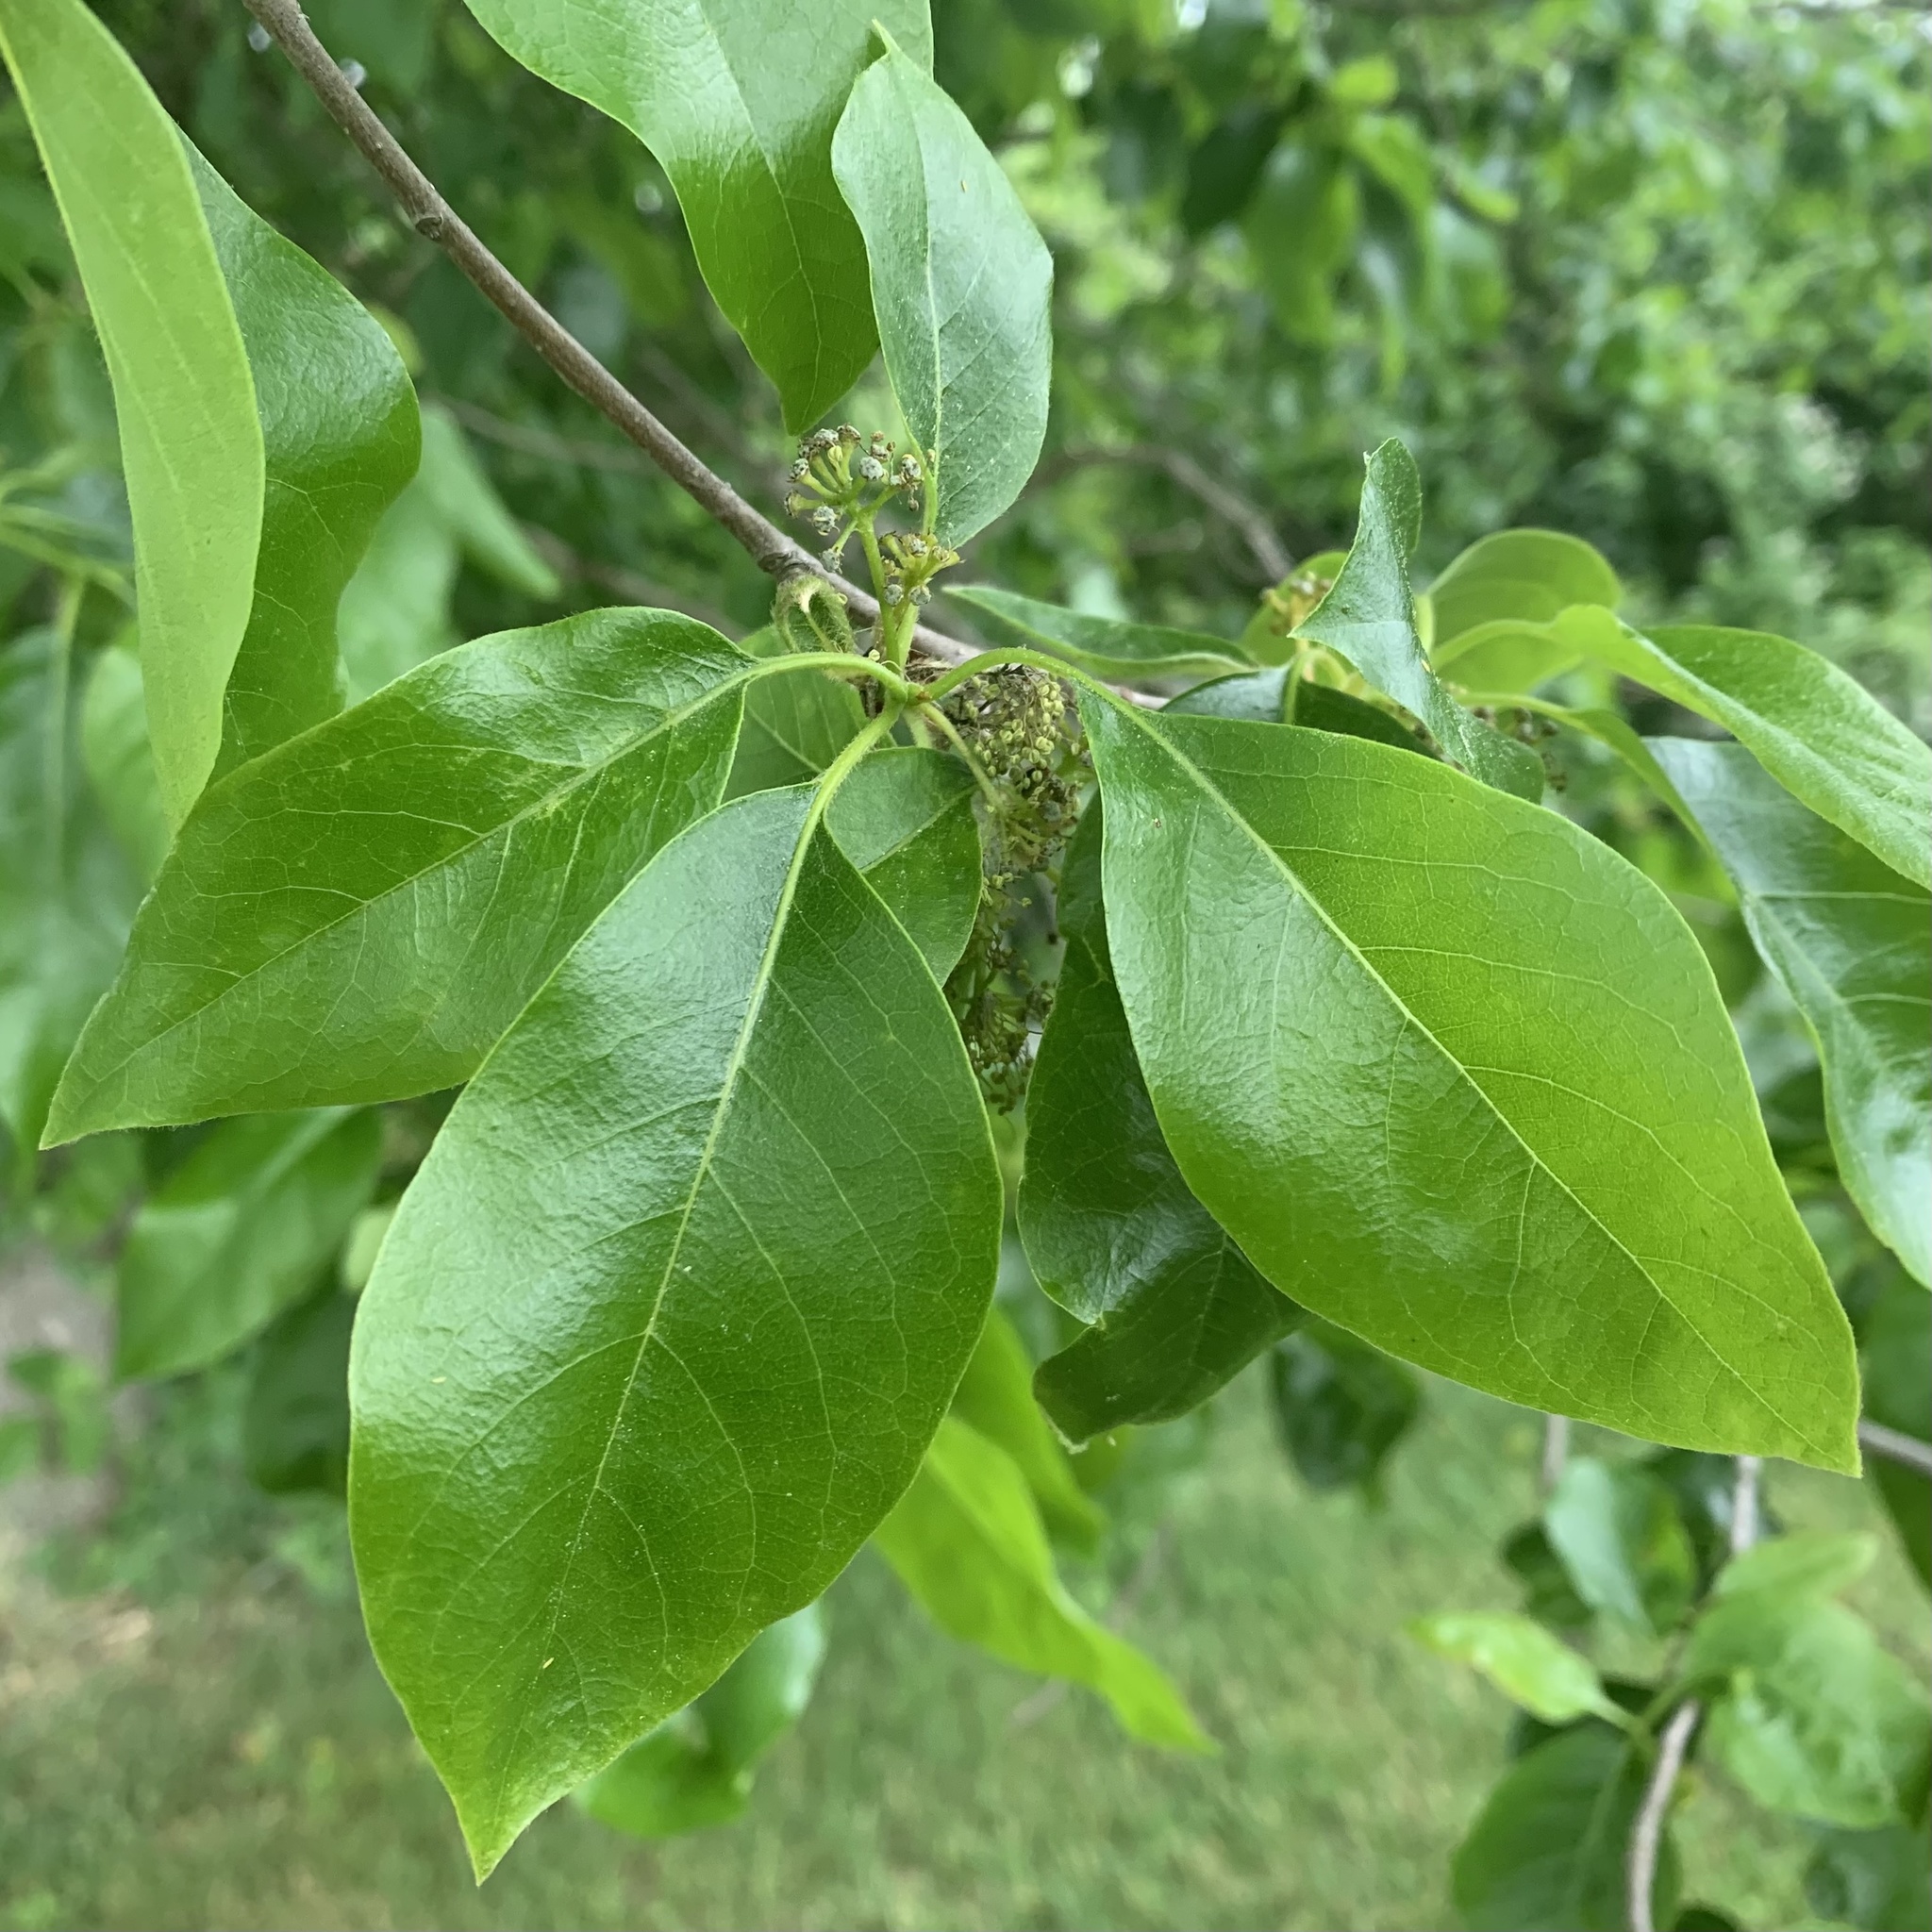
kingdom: Plantae
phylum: Tracheophyta
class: Magnoliopsida
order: Cornales
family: Nyssaceae
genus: Nyssa
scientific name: Nyssa sylvatica
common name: Black tupelo
